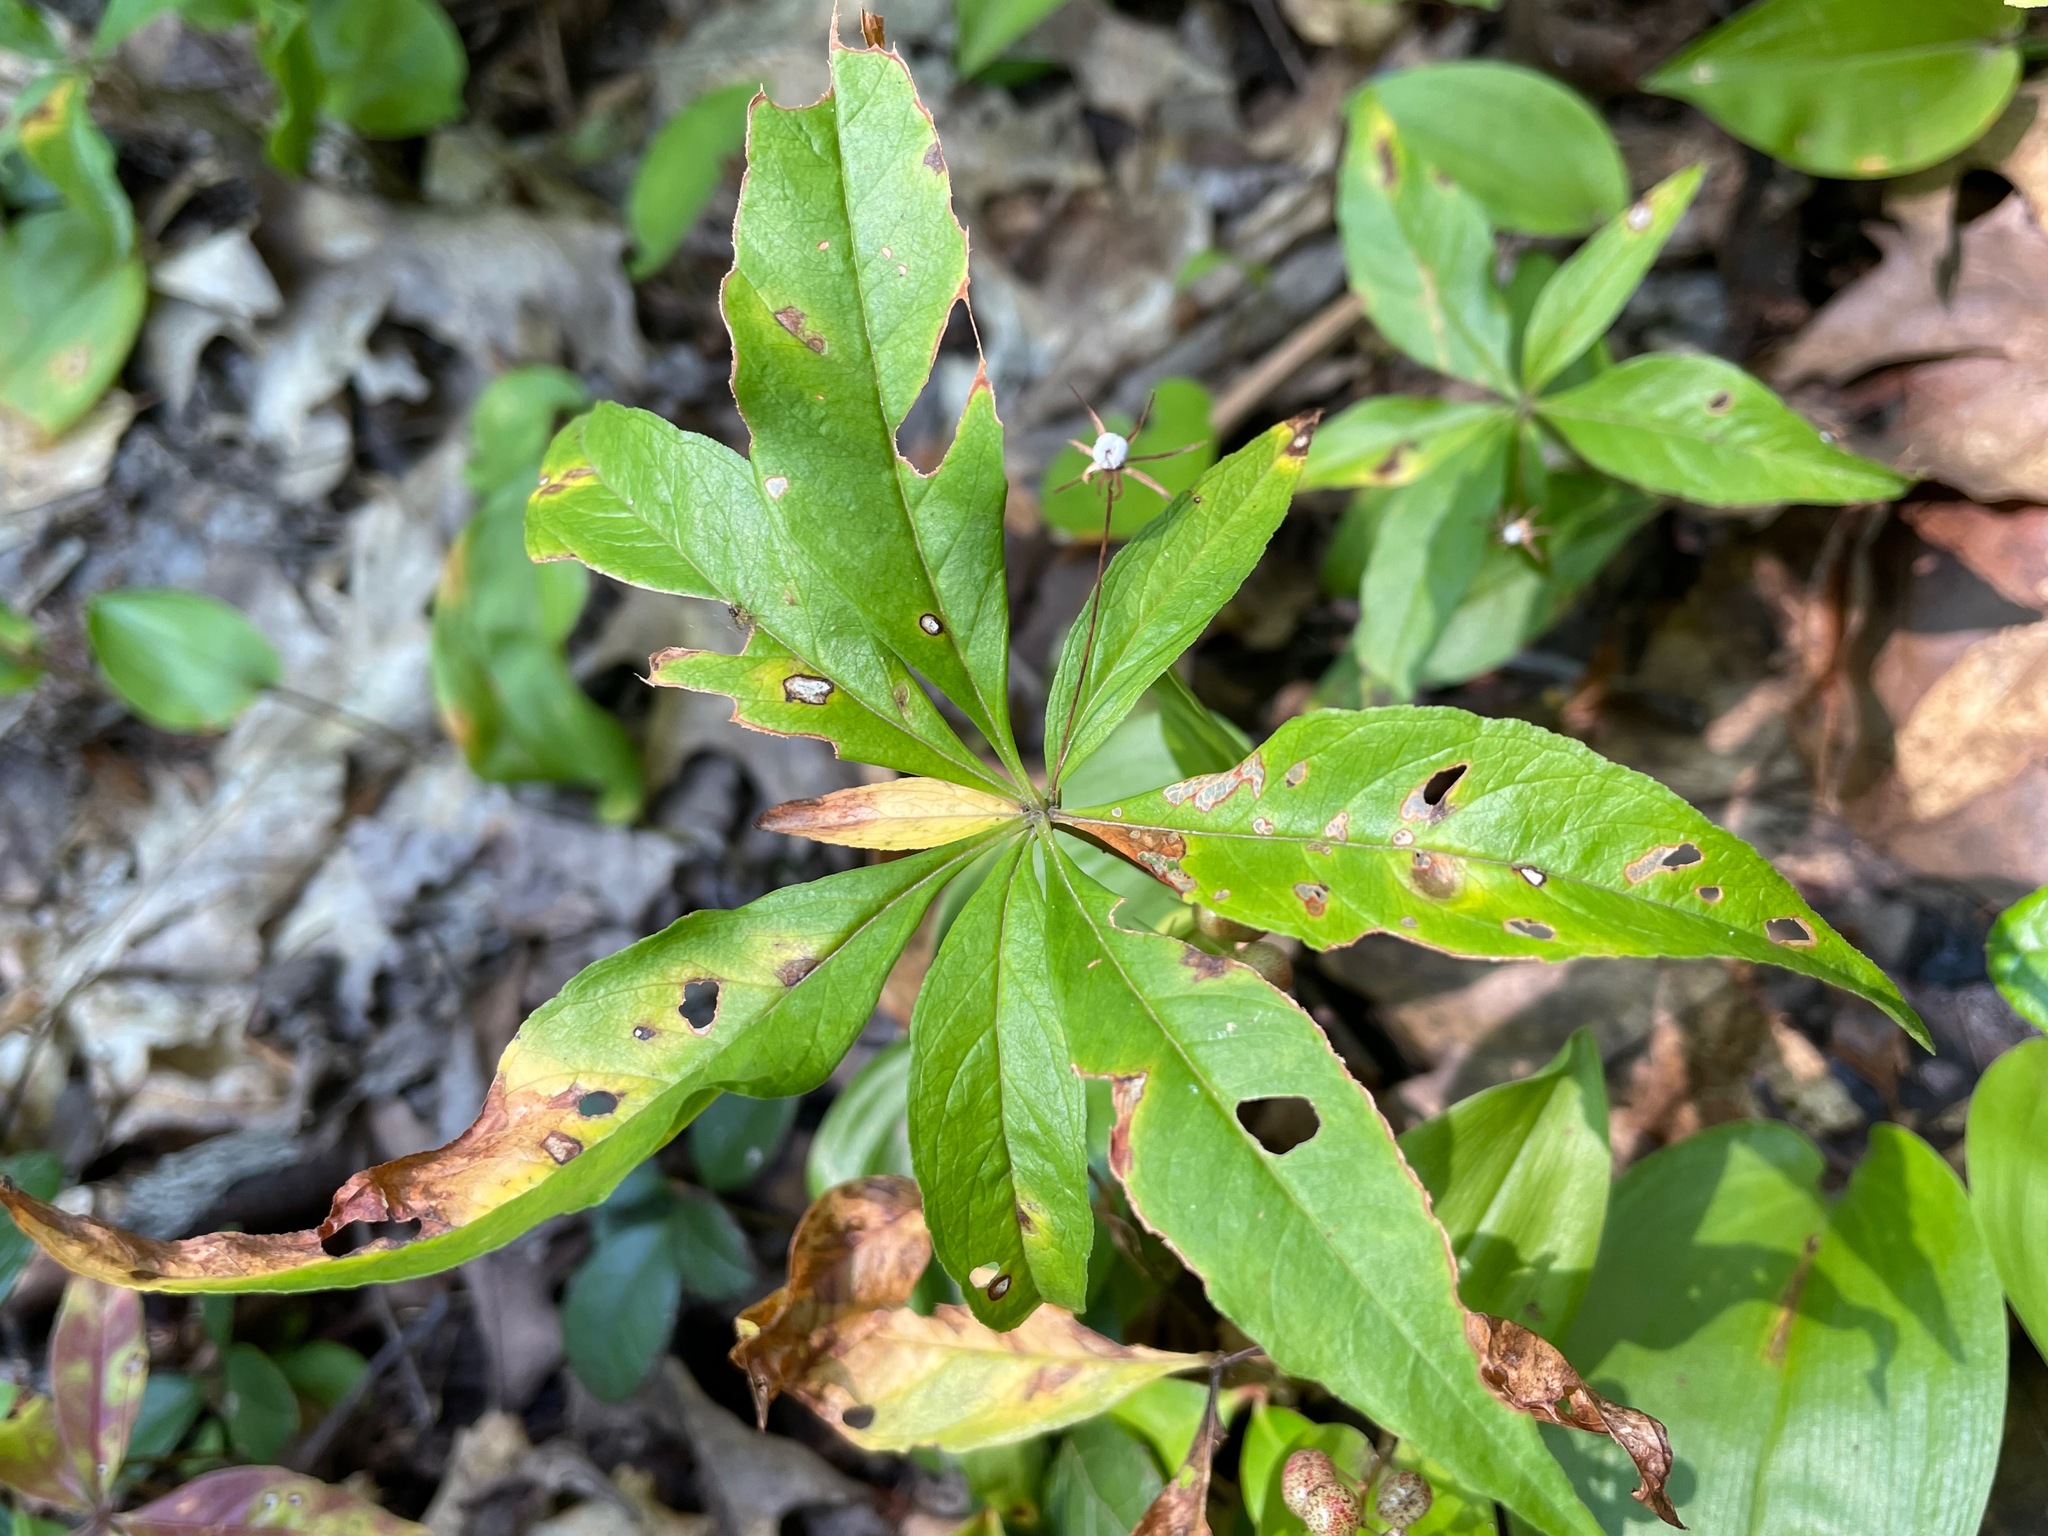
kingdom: Plantae
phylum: Tracheophyta
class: Magnoliopsida
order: Ericales
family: Primulaceae
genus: Lysimachia
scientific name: Lysimachia borealis
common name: American starflower
